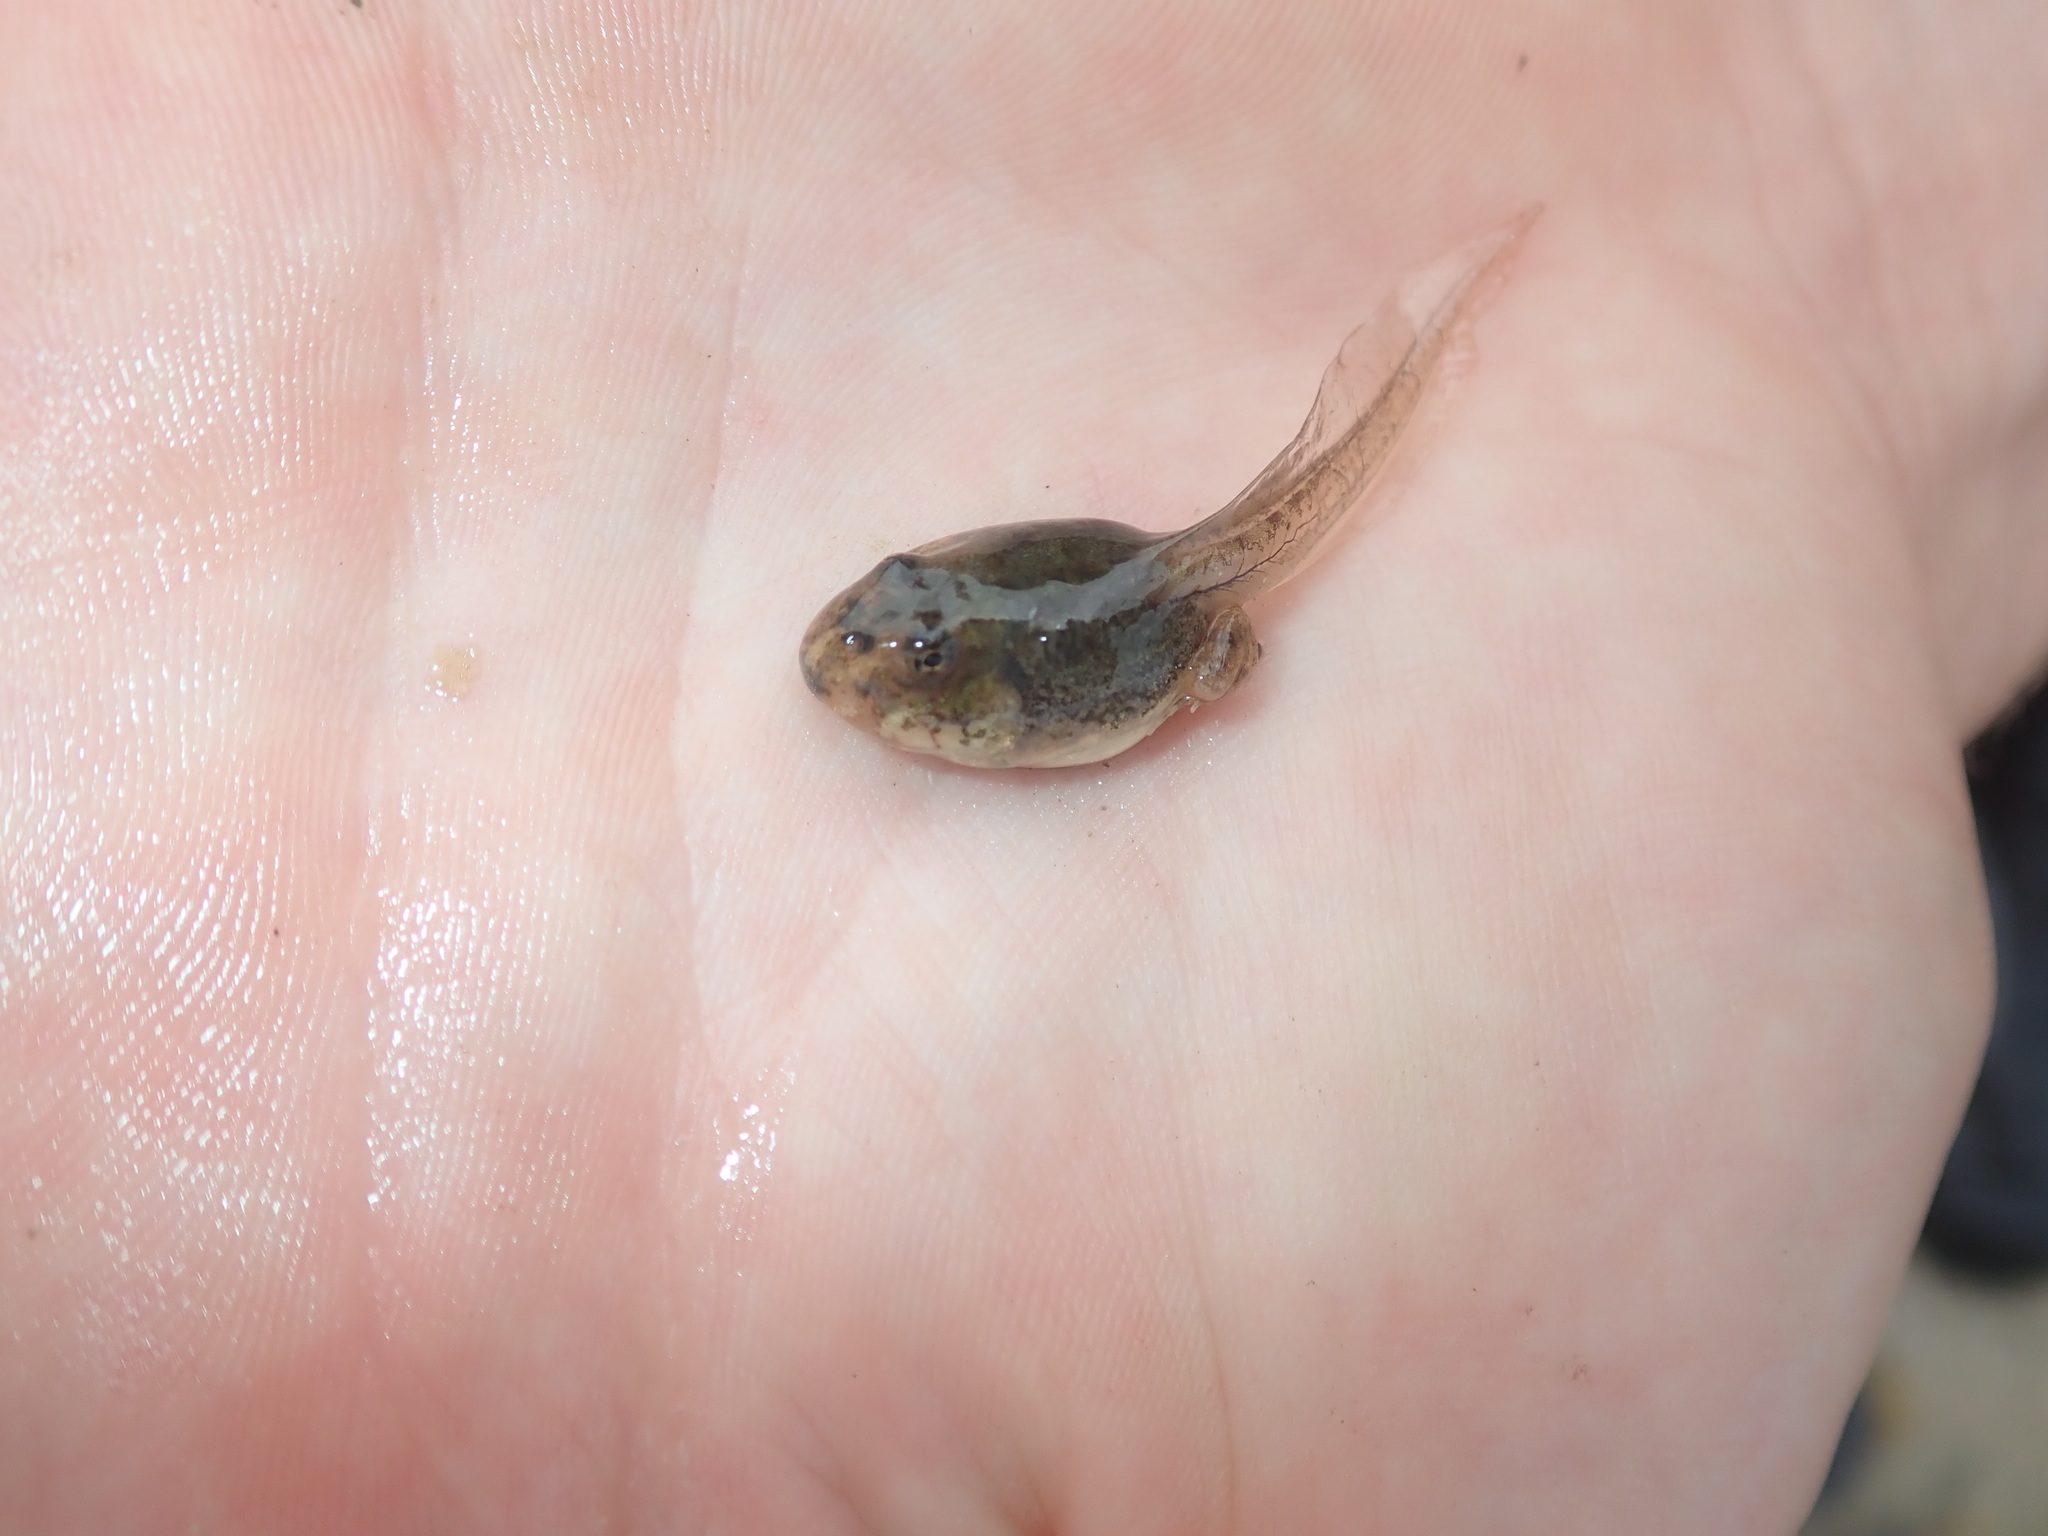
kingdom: Animalia
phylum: Chordata
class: Amphibia
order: Anura
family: Pyxicephalidae
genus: Tomopterna
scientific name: Tomopterna delalandii
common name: Delalande's burrowing bullfrog
